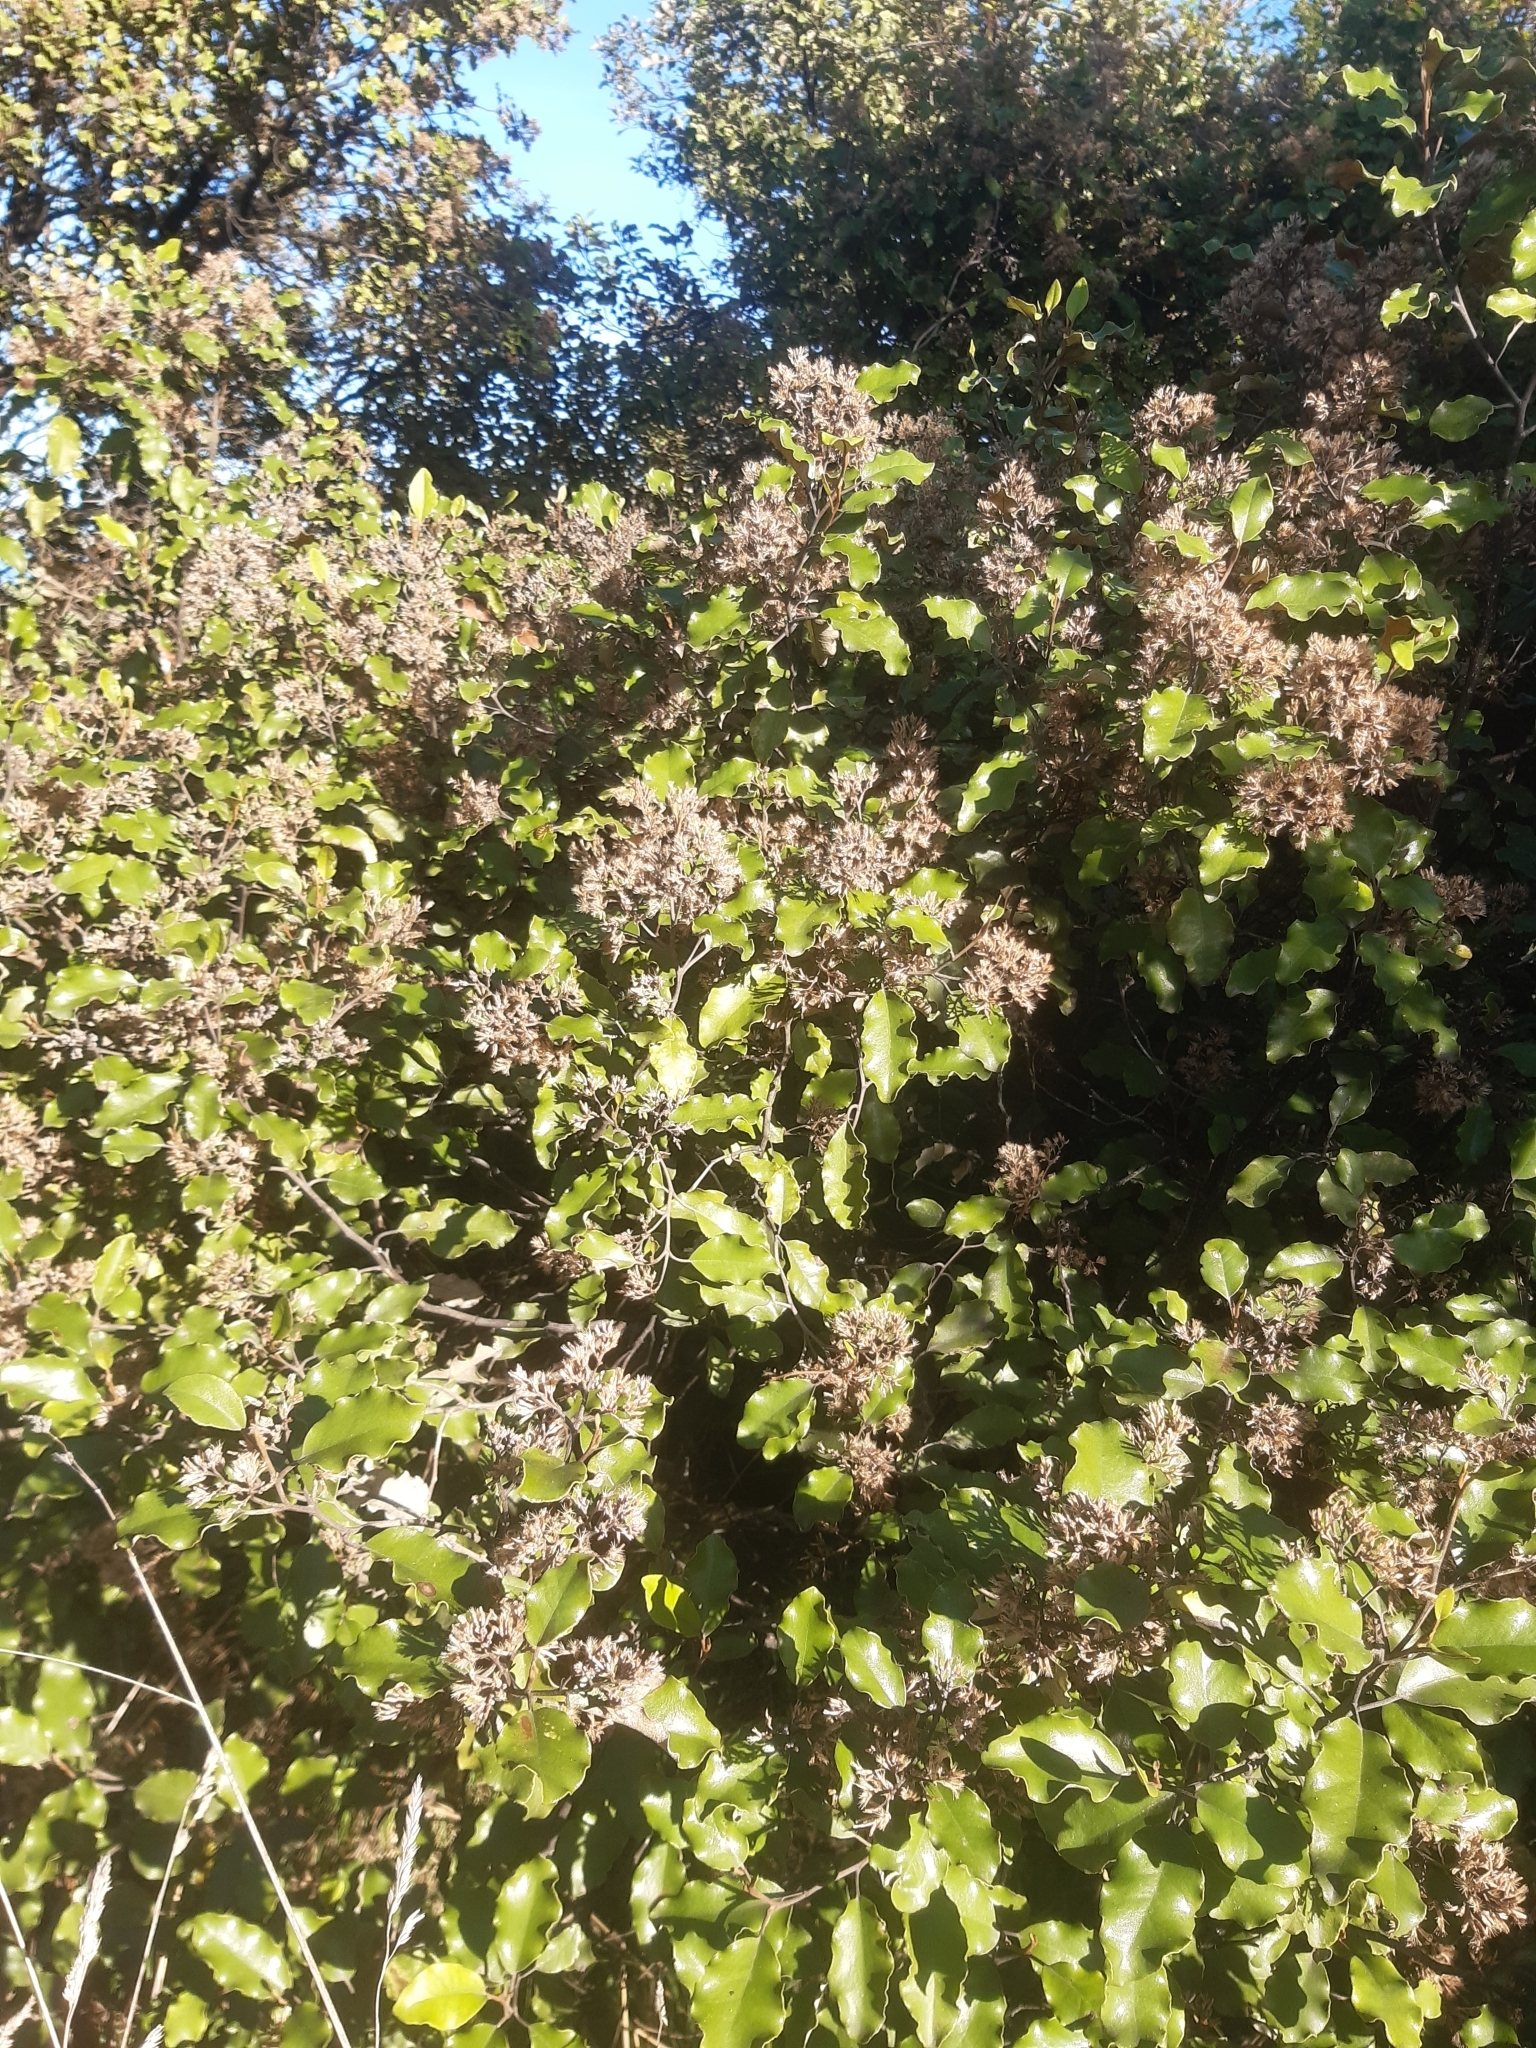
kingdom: Plantae
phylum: Tracheophyta
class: Magnoliopsida
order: Asterales
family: Asteraceae
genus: Olearia
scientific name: Olearia paniculata
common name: Akiraho
